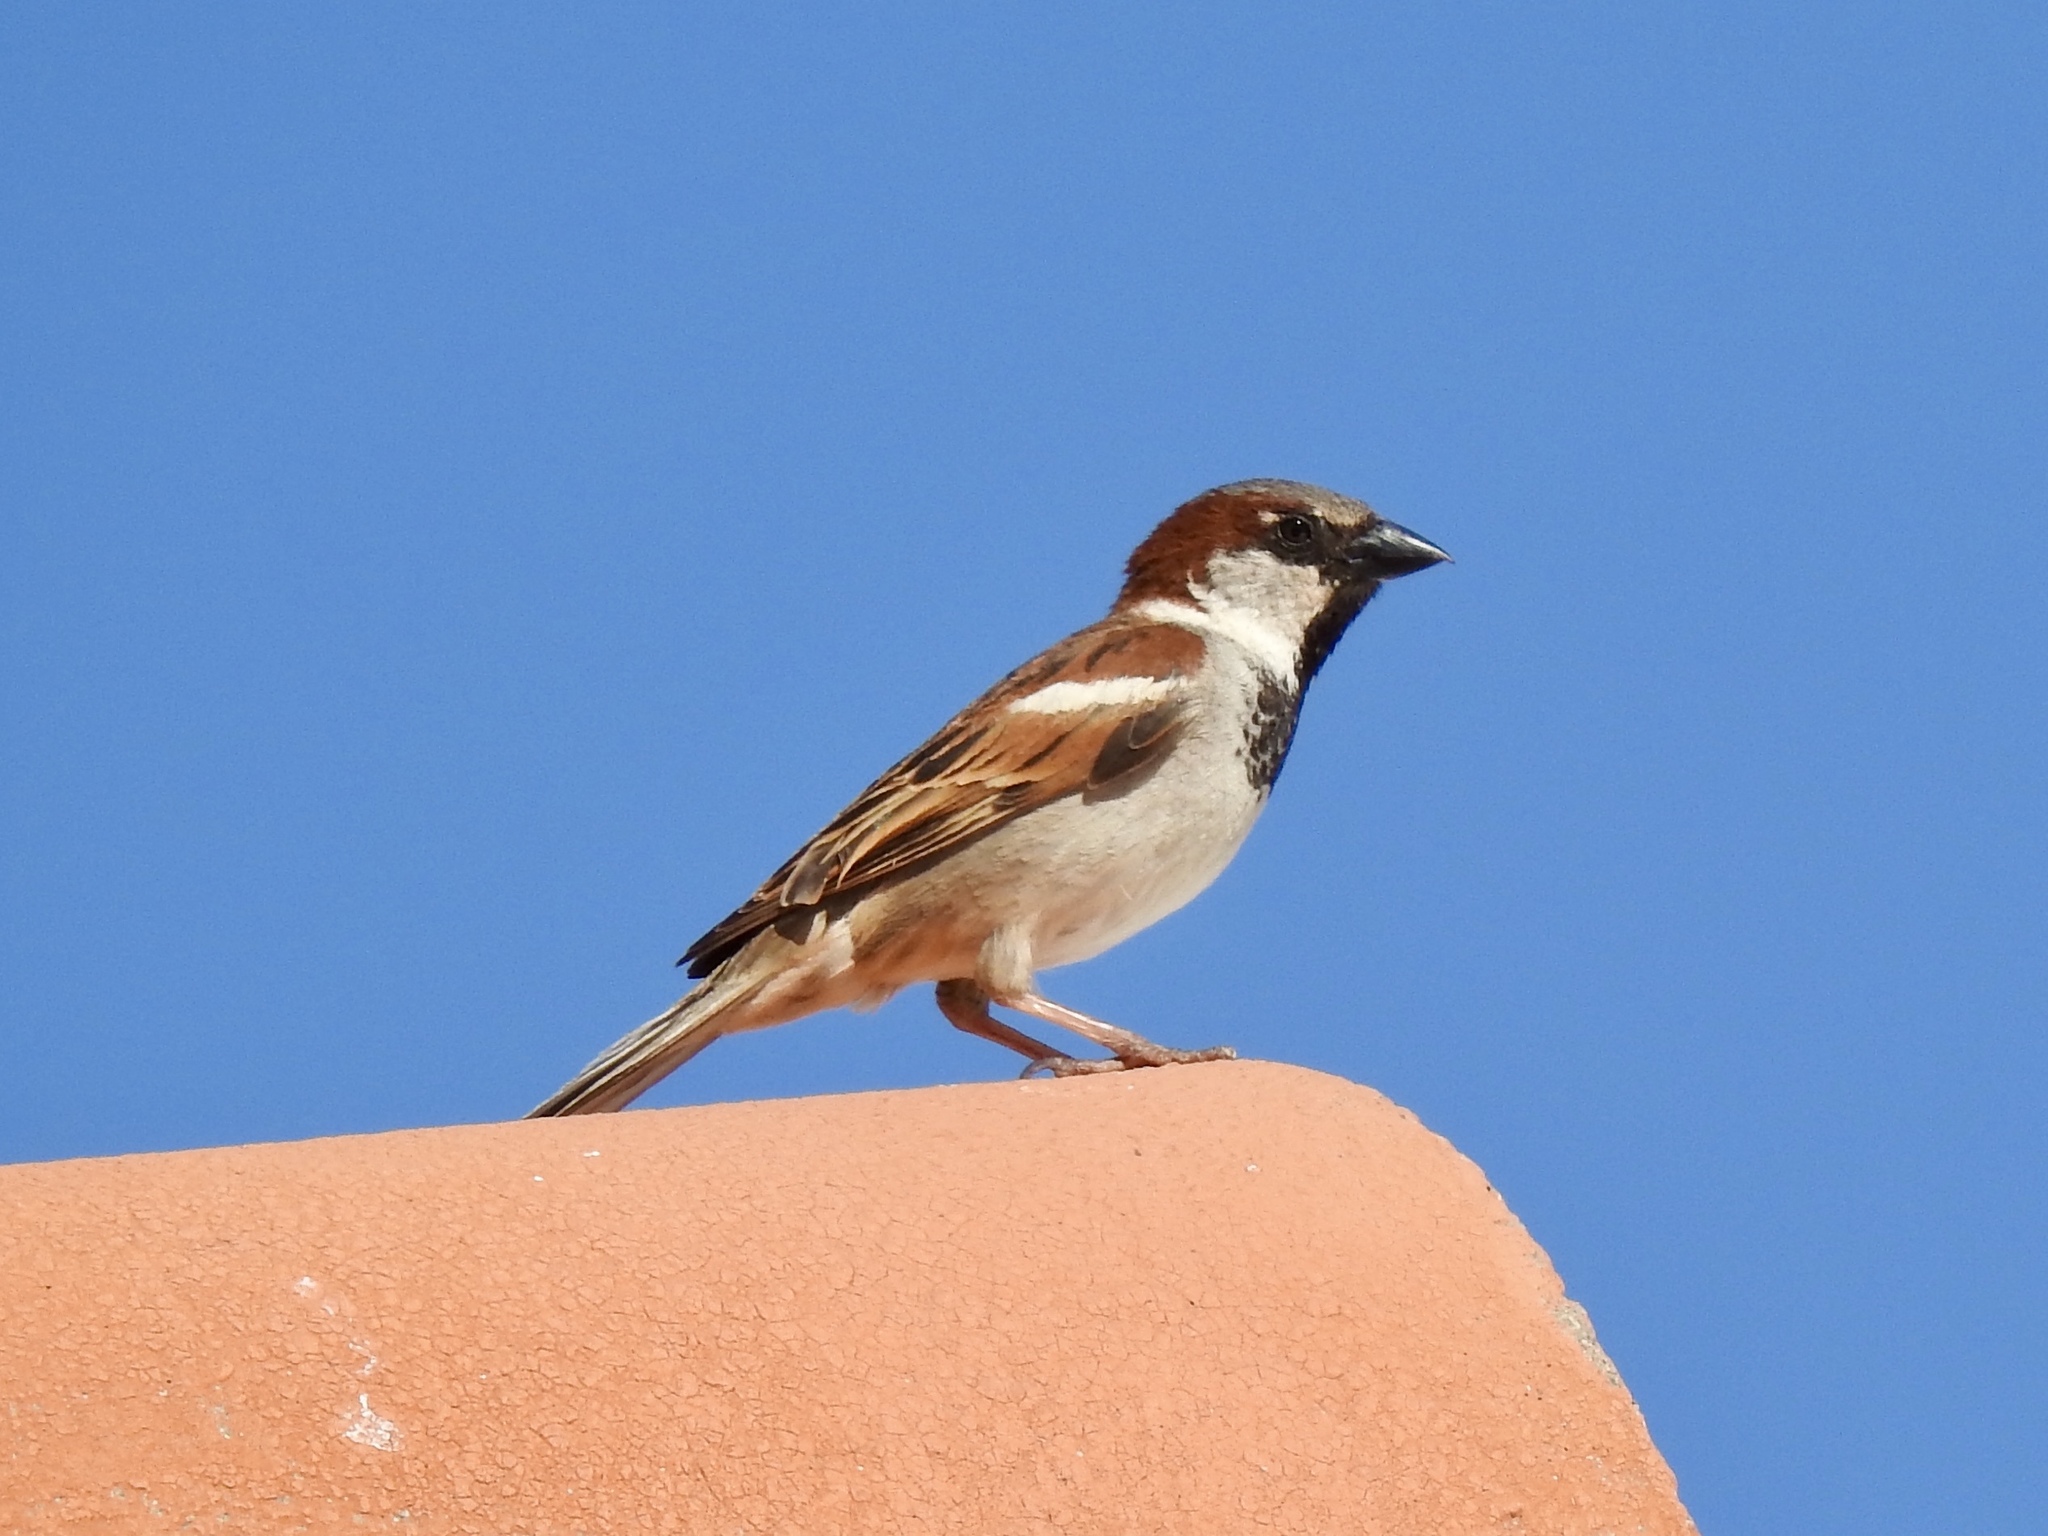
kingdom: Animalia
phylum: Chordata
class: Aves
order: Passeriformes
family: Passeridae
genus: Passer
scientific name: Passer domesticus
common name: House sparrow
